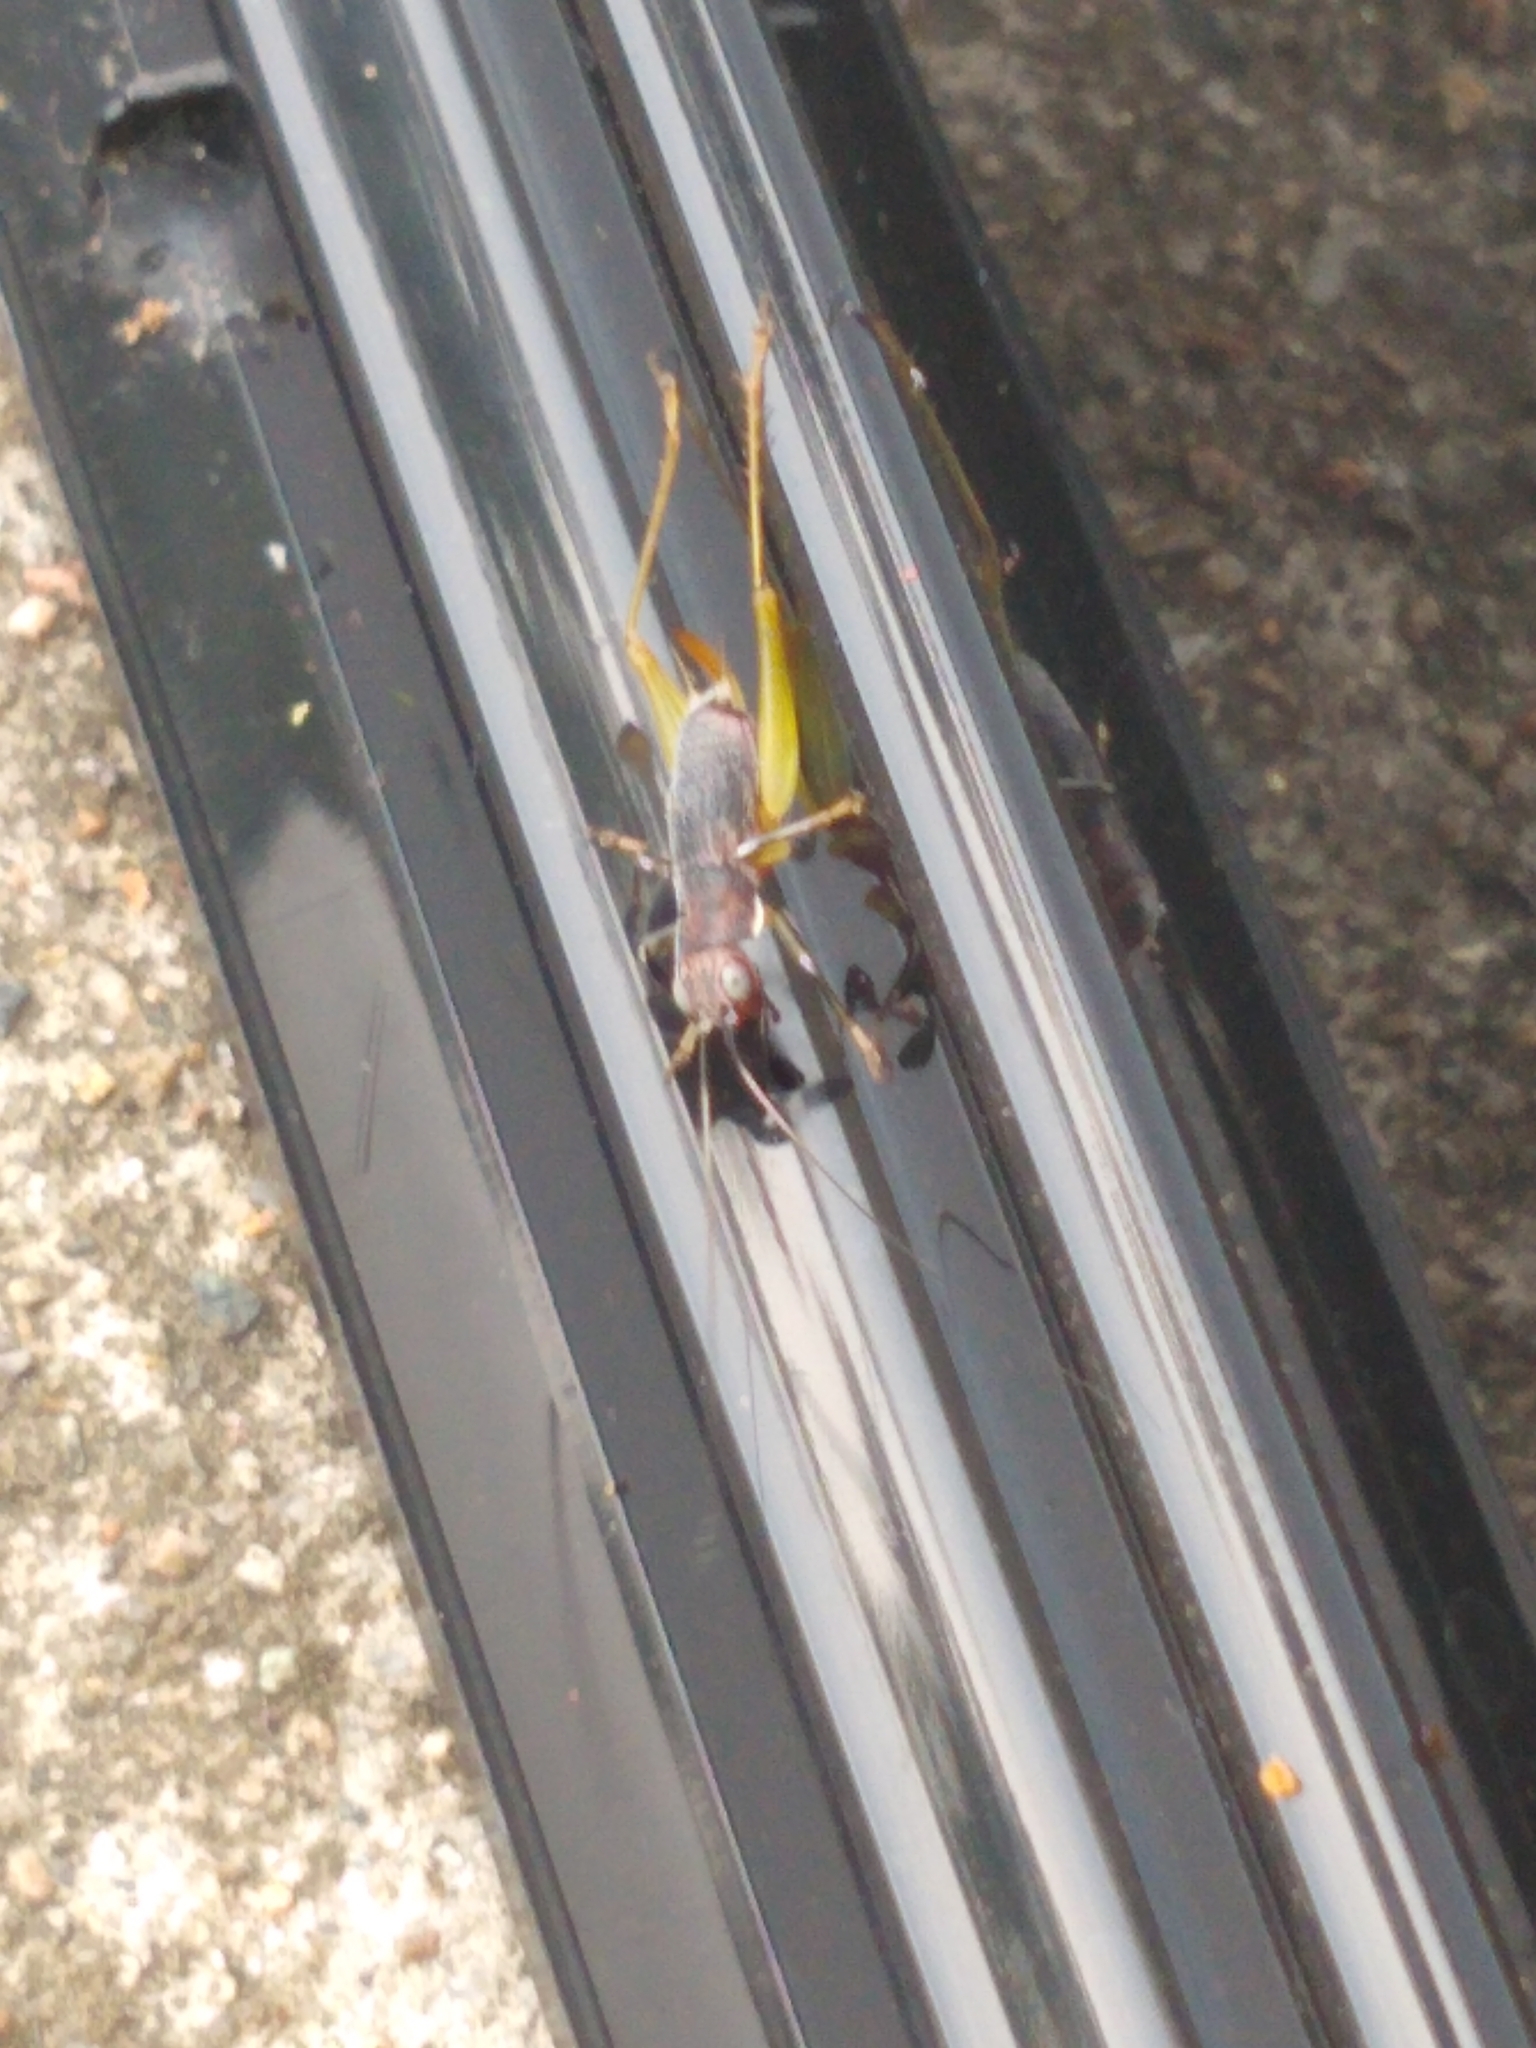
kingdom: Animalia
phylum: Arthropoda
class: Insecta
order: Orthoptera
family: Trigonidiidae
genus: Phyllopalpus
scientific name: Phyllopalpus pulchellus
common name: Handsome trig
